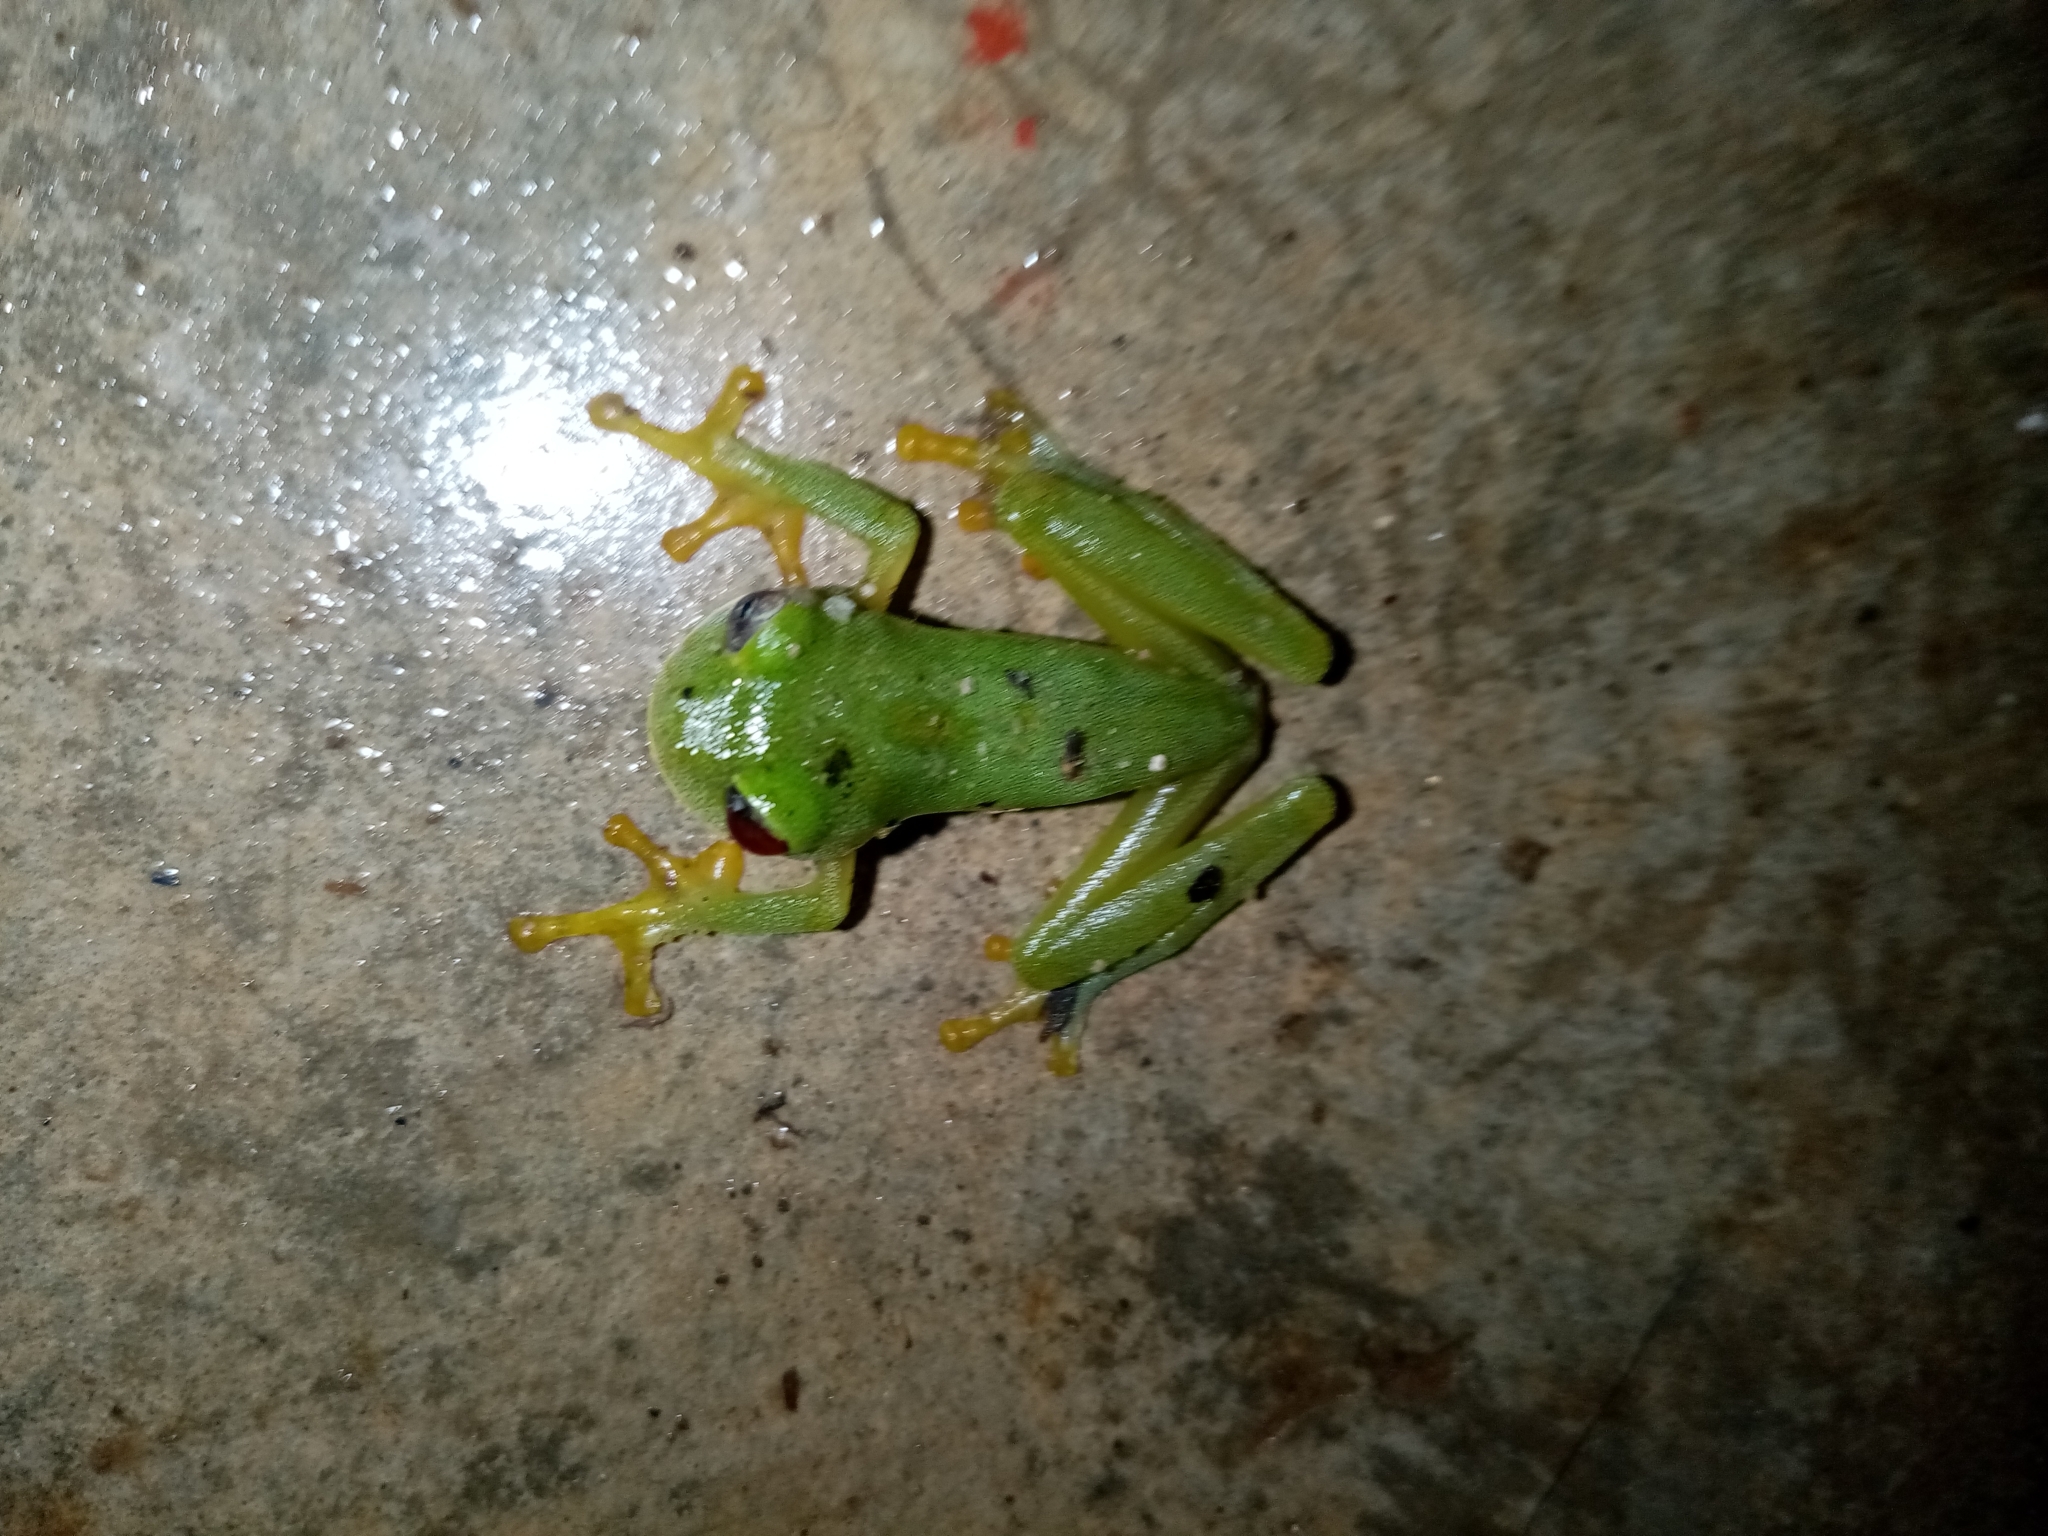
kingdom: Animalia
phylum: Chordata
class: Amphibia
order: Anura
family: Centrolenidae
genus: Ikakogi
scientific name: Ikakogi tayrona
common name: Magdalena giant glass frog
